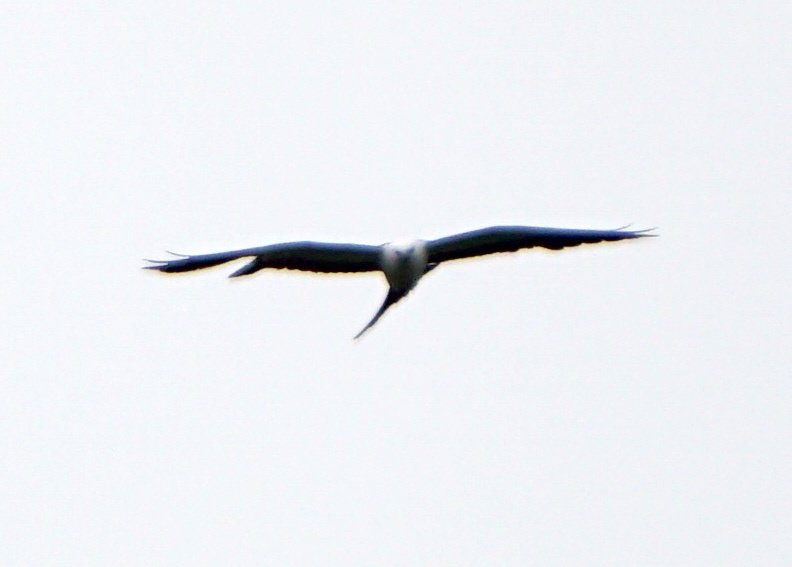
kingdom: Animalia
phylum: Chordata
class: Aves
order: Accipitriformes
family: Accipitridae
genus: Elanoides
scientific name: Elanoides forficatus
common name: Swallow-tailed kite
